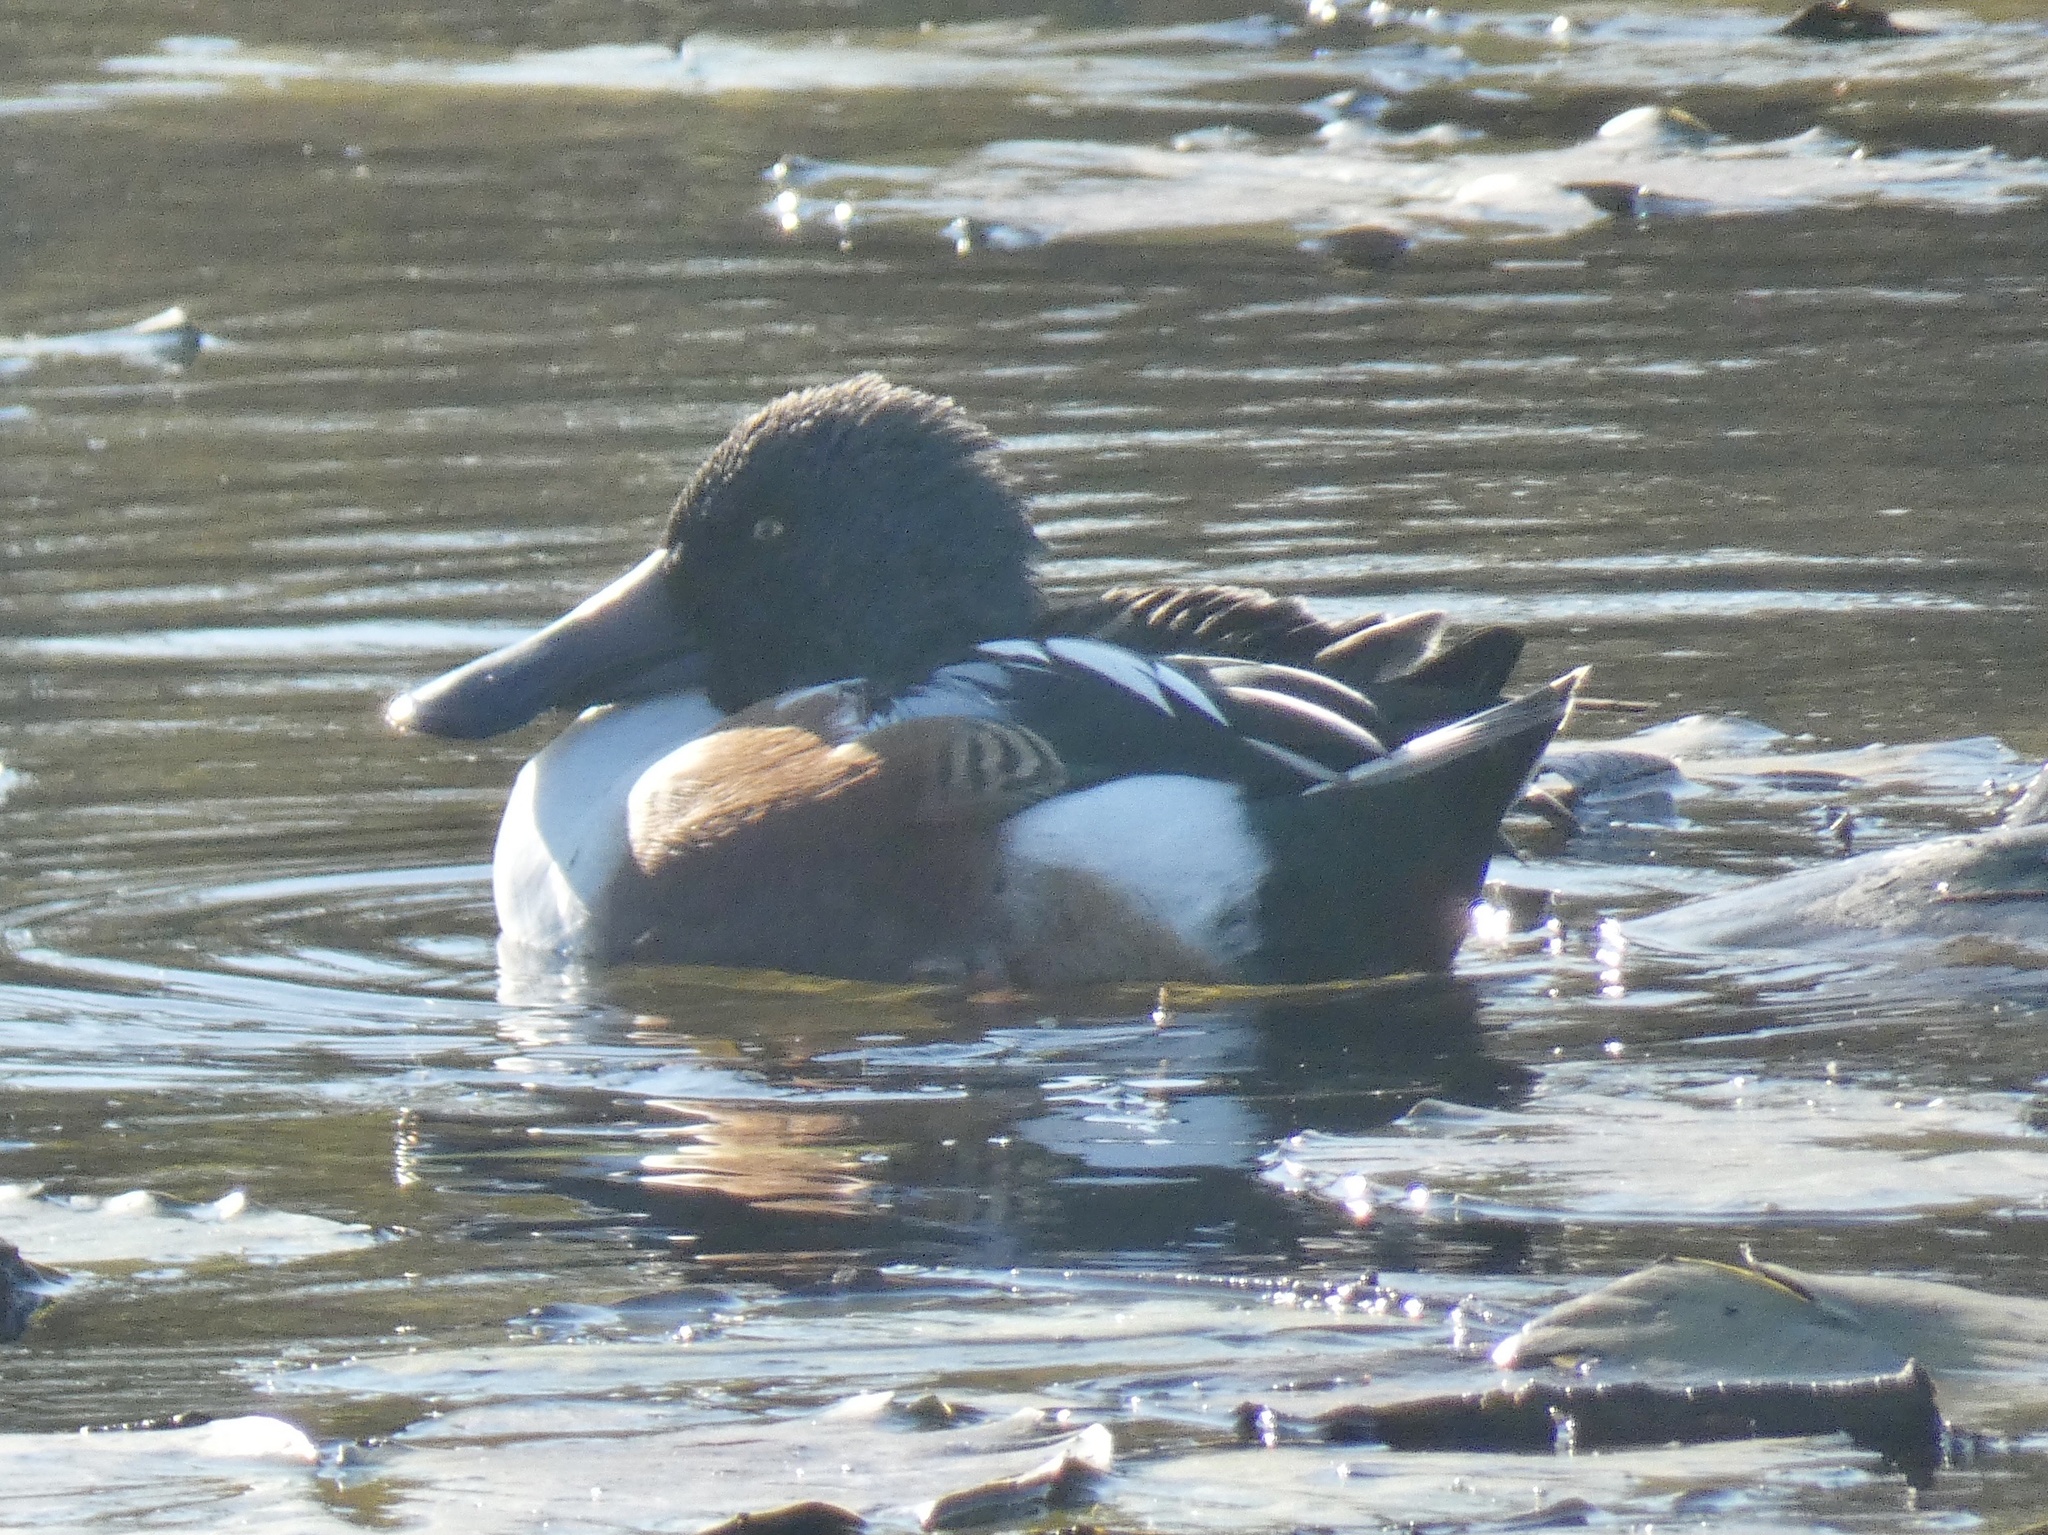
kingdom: Animalia
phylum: Chordata
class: Aves
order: Anseriformes
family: Anatidae
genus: Spatula
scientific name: Spatula clypeata
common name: Northern shoveler
